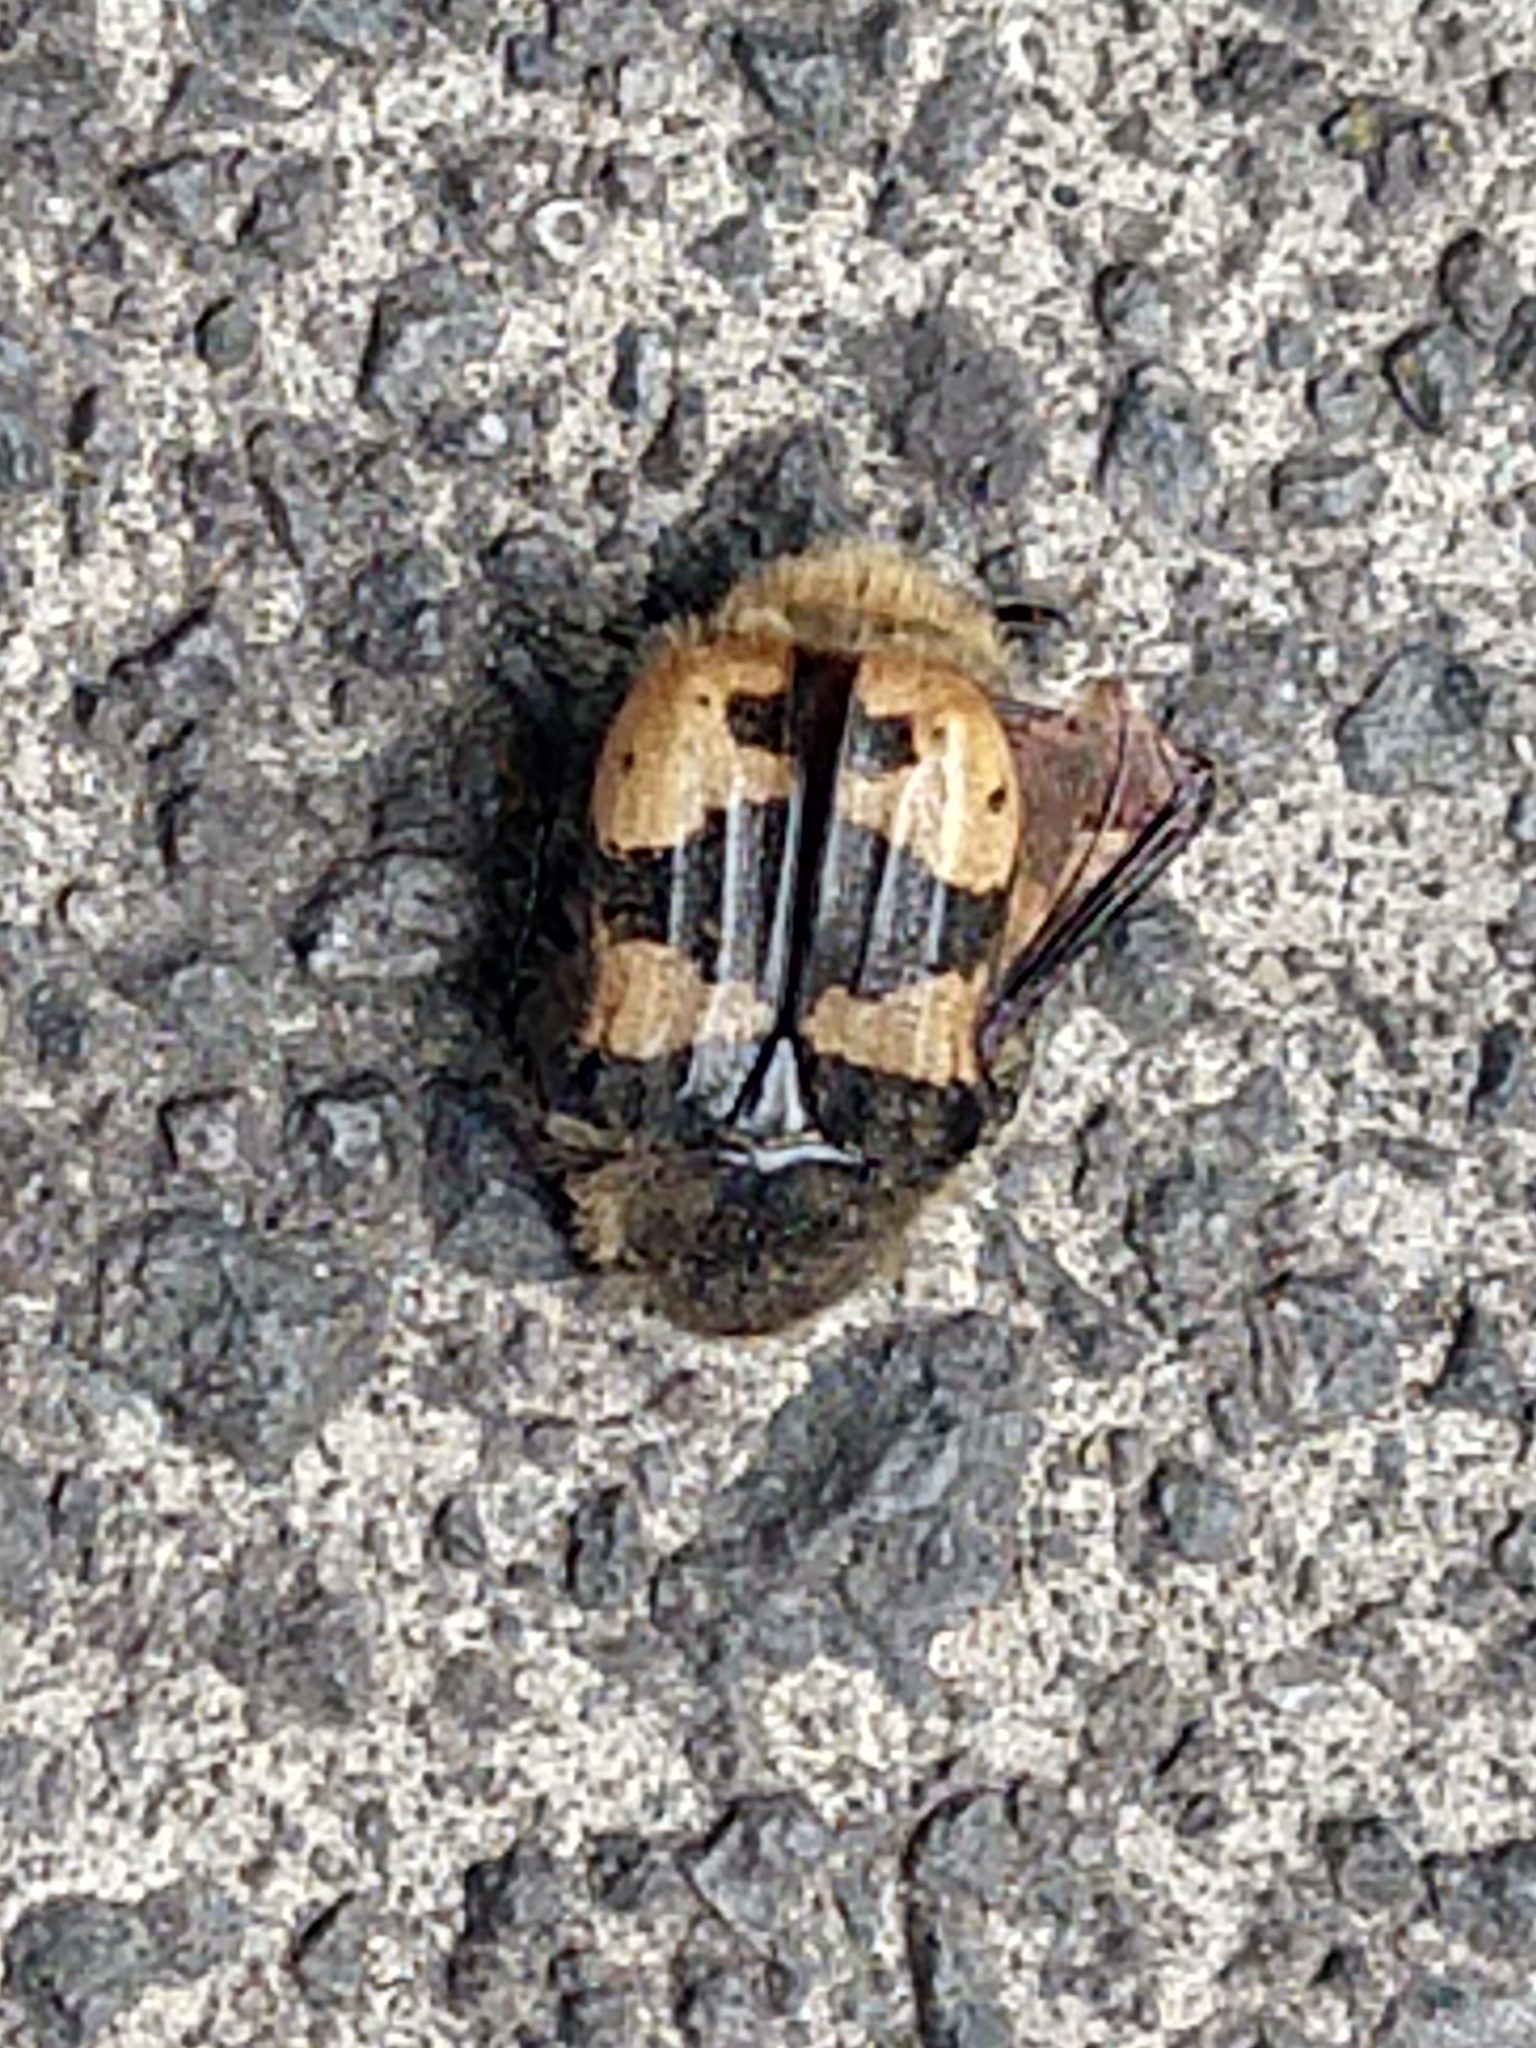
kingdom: Animalia
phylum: Arthropoda
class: Insecta
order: Coleoptera
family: Scarabaeidae
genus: Euphoria
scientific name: Euphoria basalis
